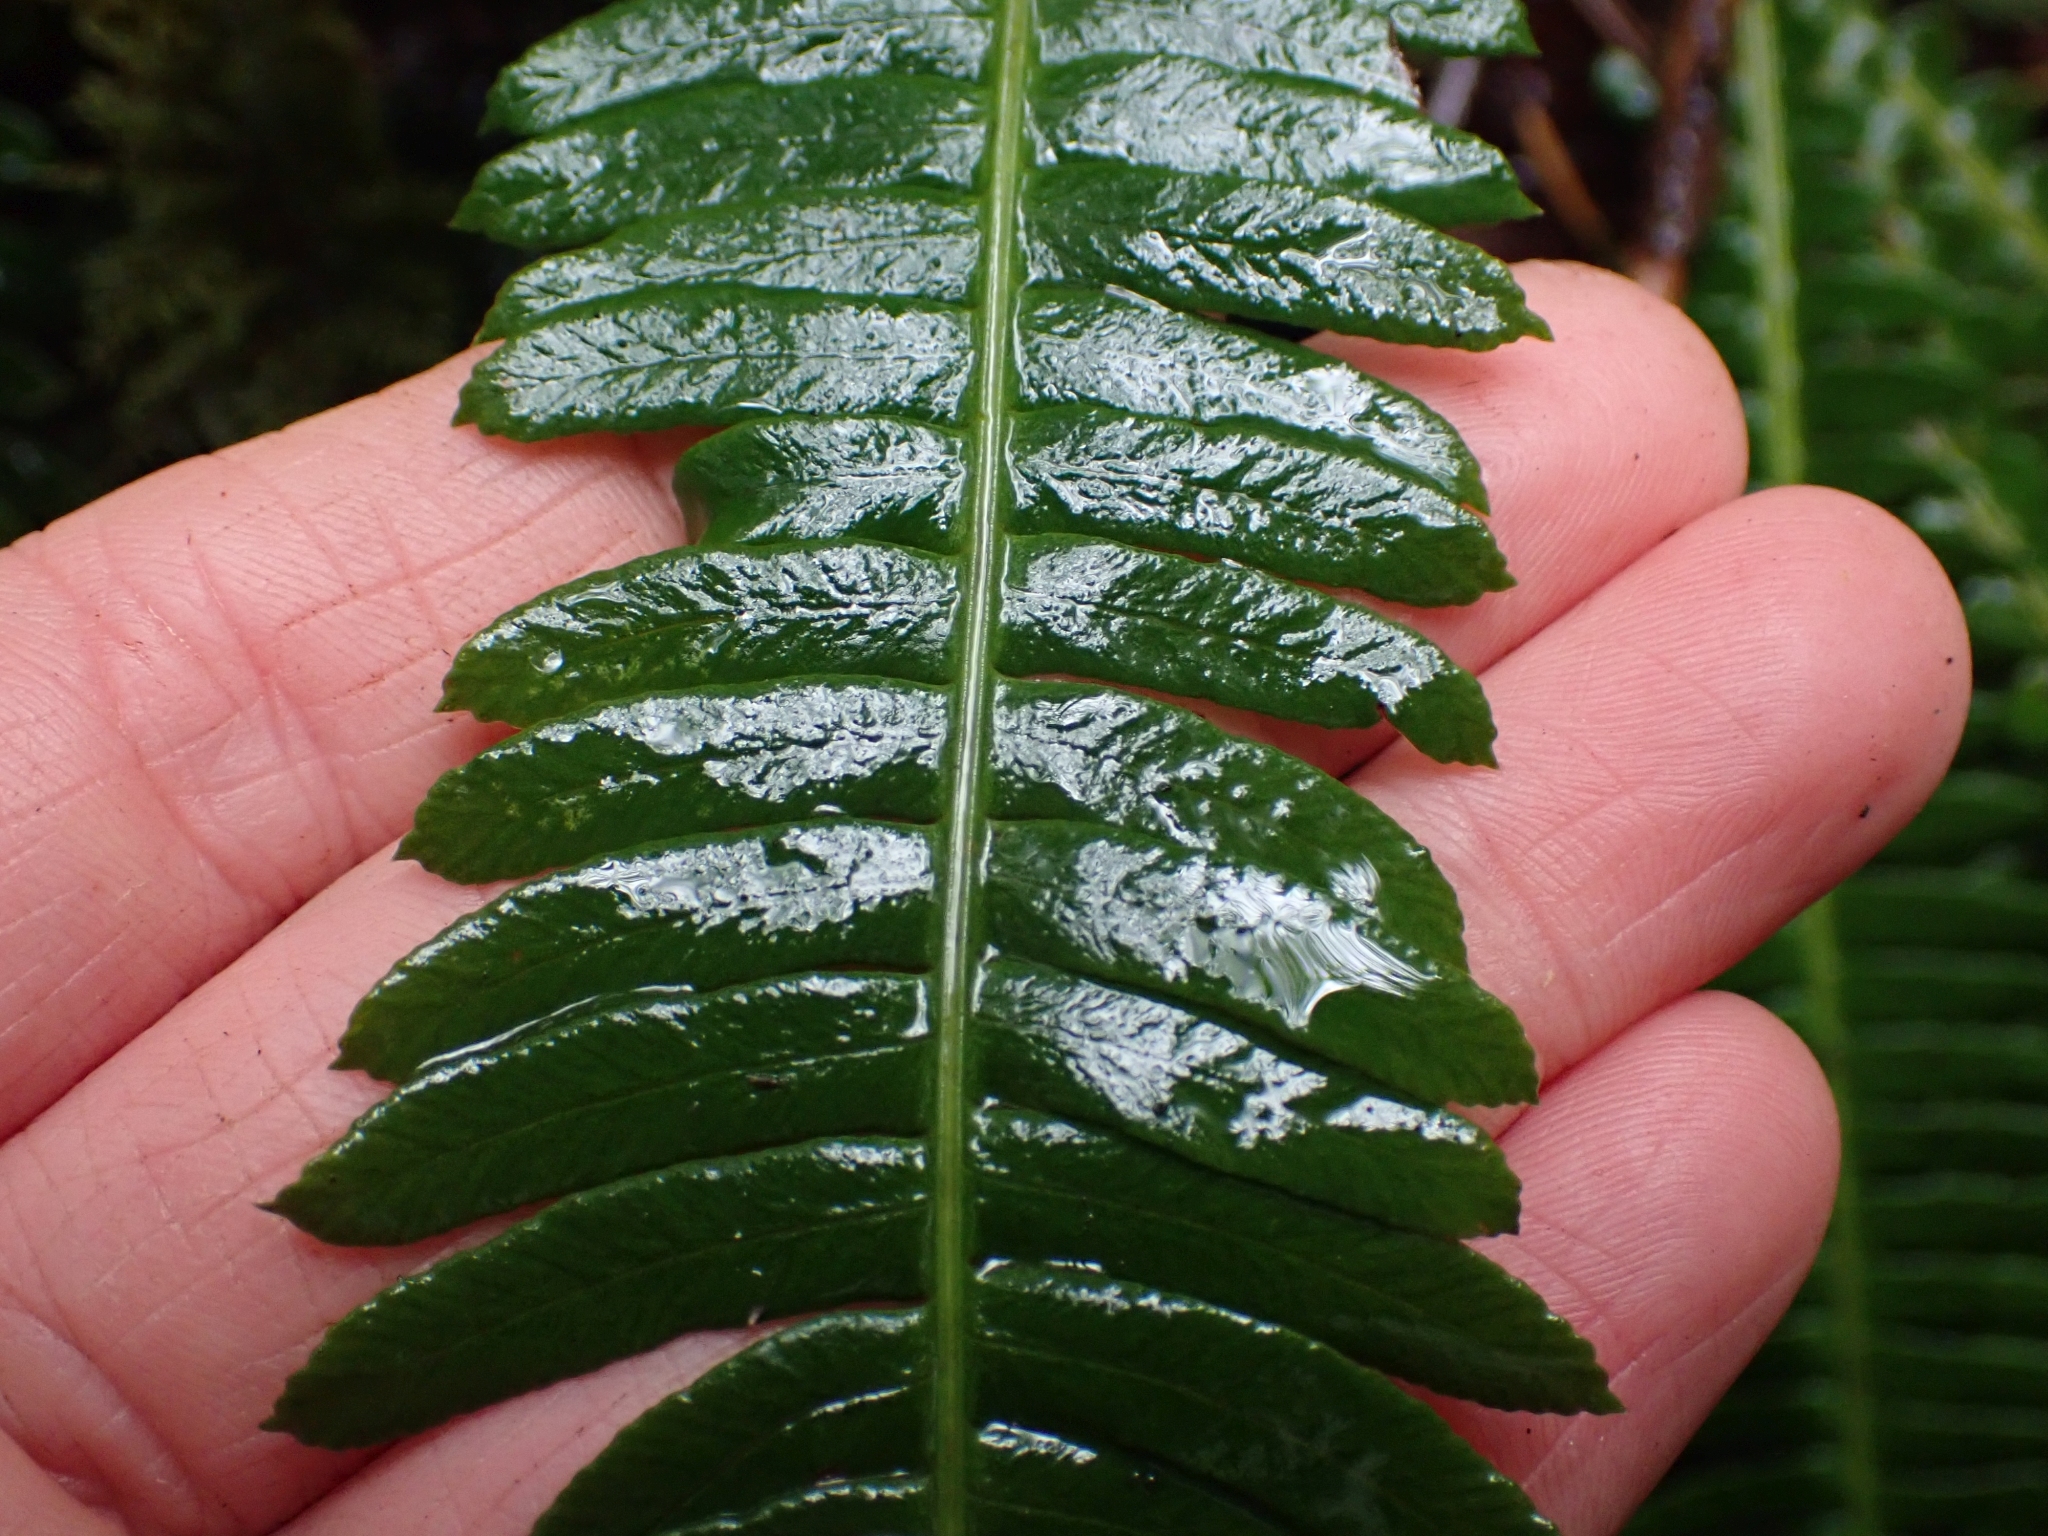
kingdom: Plantae
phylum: Tracheophyta
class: Polypodiopsida
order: Polypodiales
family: Blechnaceae
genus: Struthiopteris
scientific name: Struthiopteris spicant
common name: Deer fern
